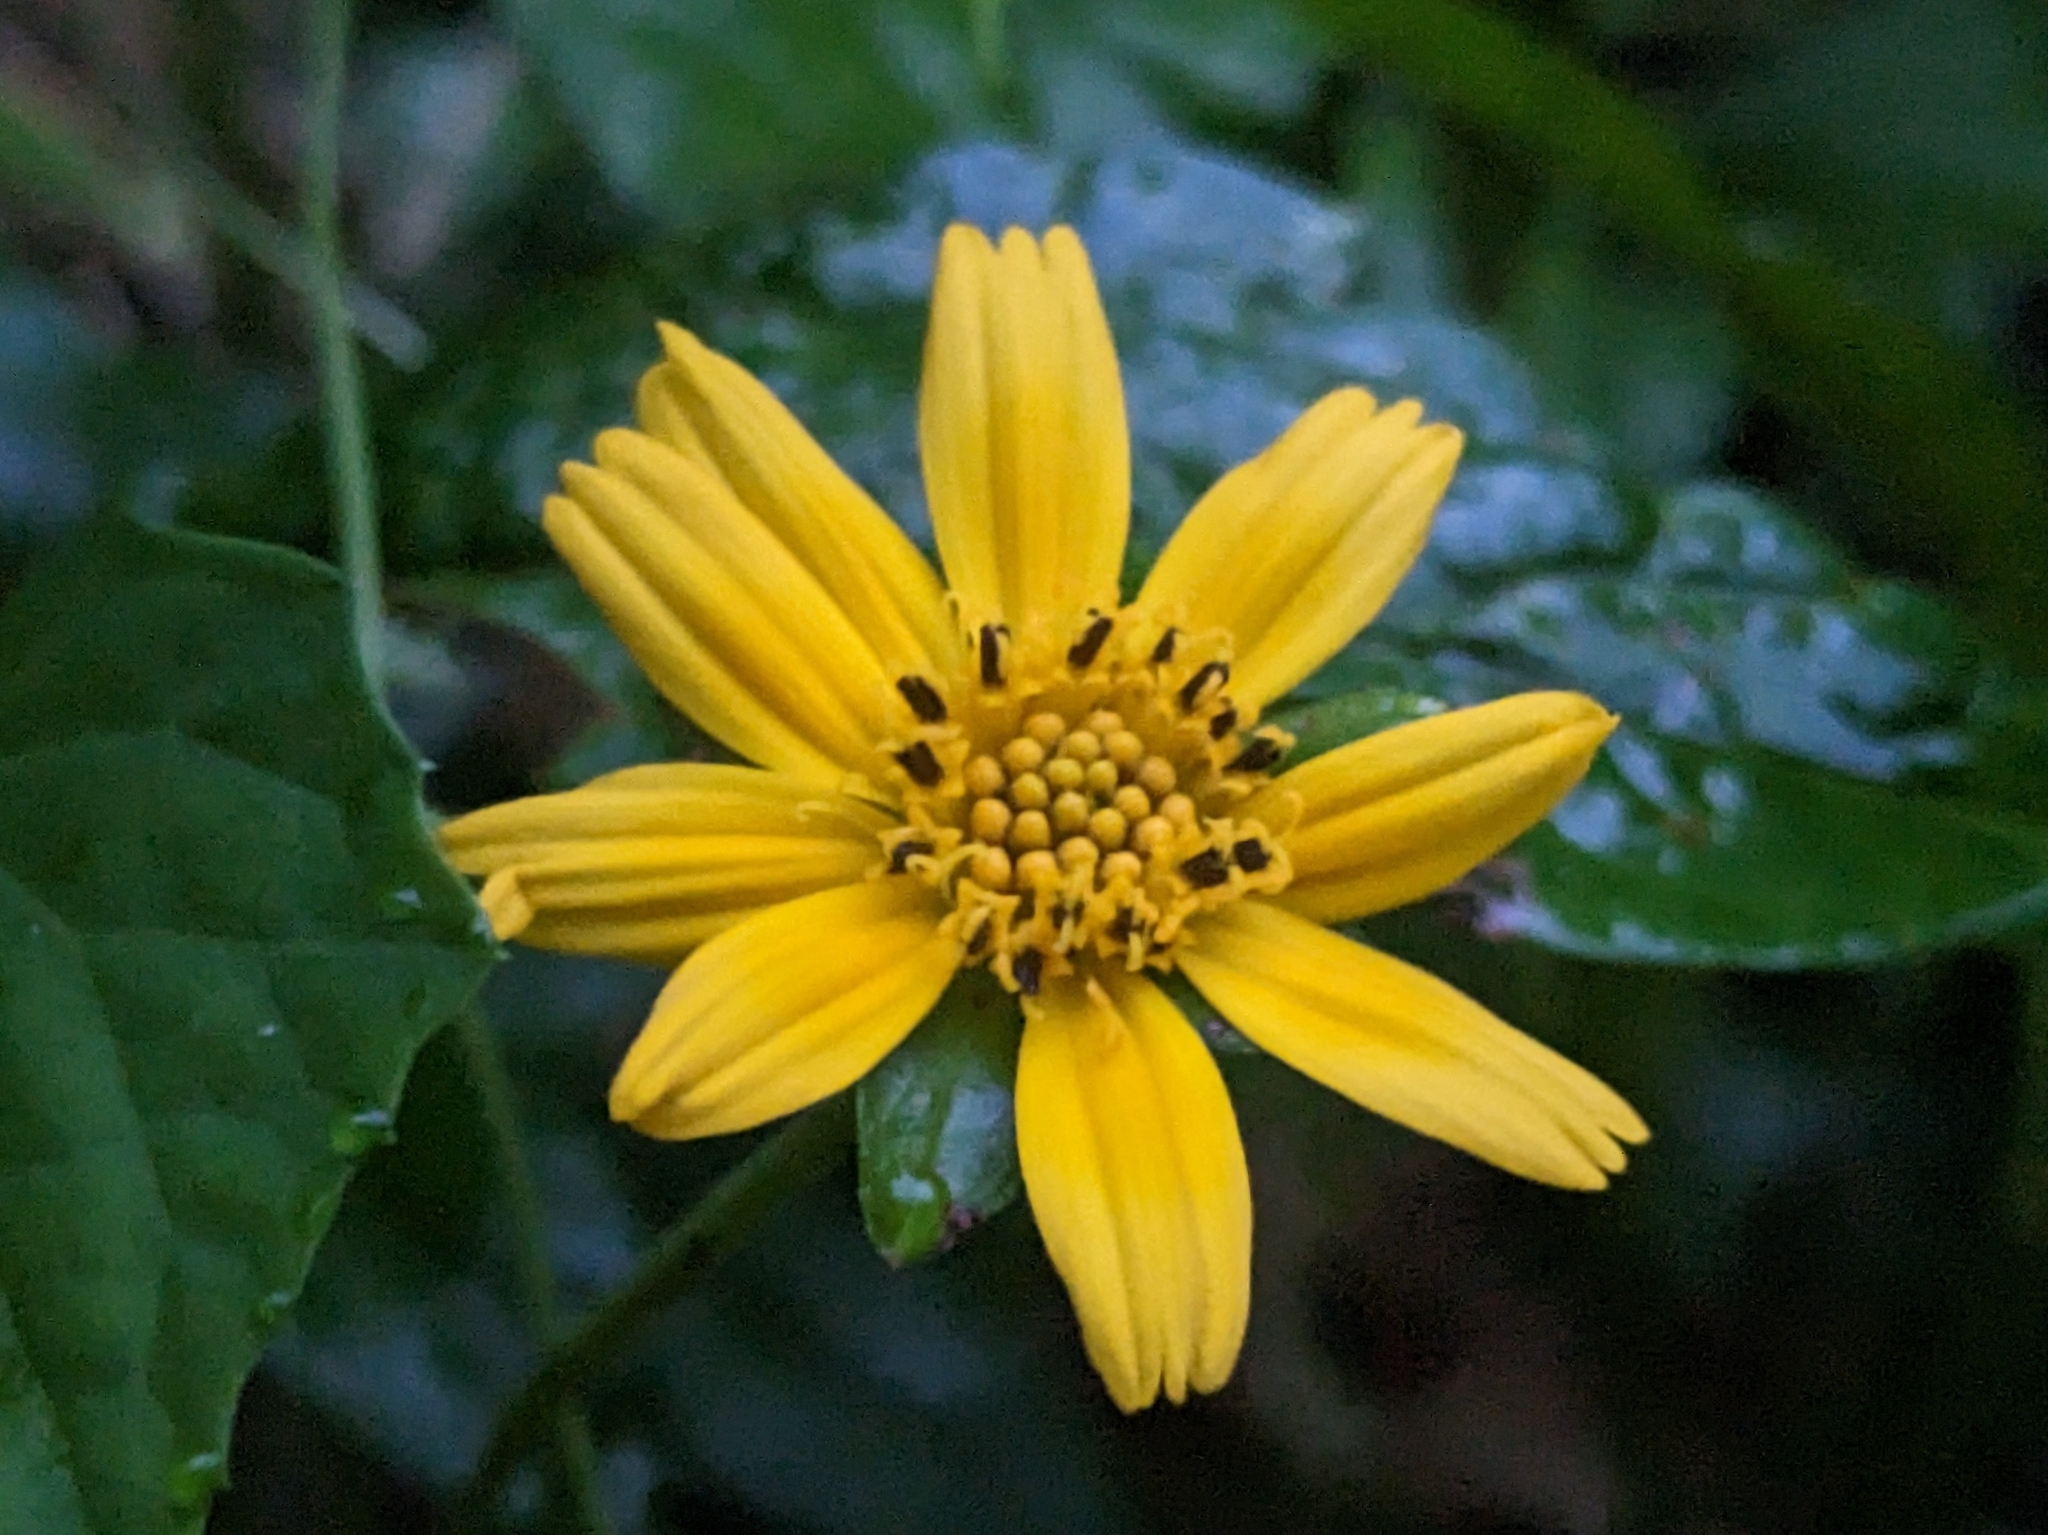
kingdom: Plantae
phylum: Tracheophyta
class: Magnoliopsida
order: Asterales
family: Asteraceae
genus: Sphagneticola
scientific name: Sphagneticola trilobata
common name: Bay biscayne creeping-oxeye
